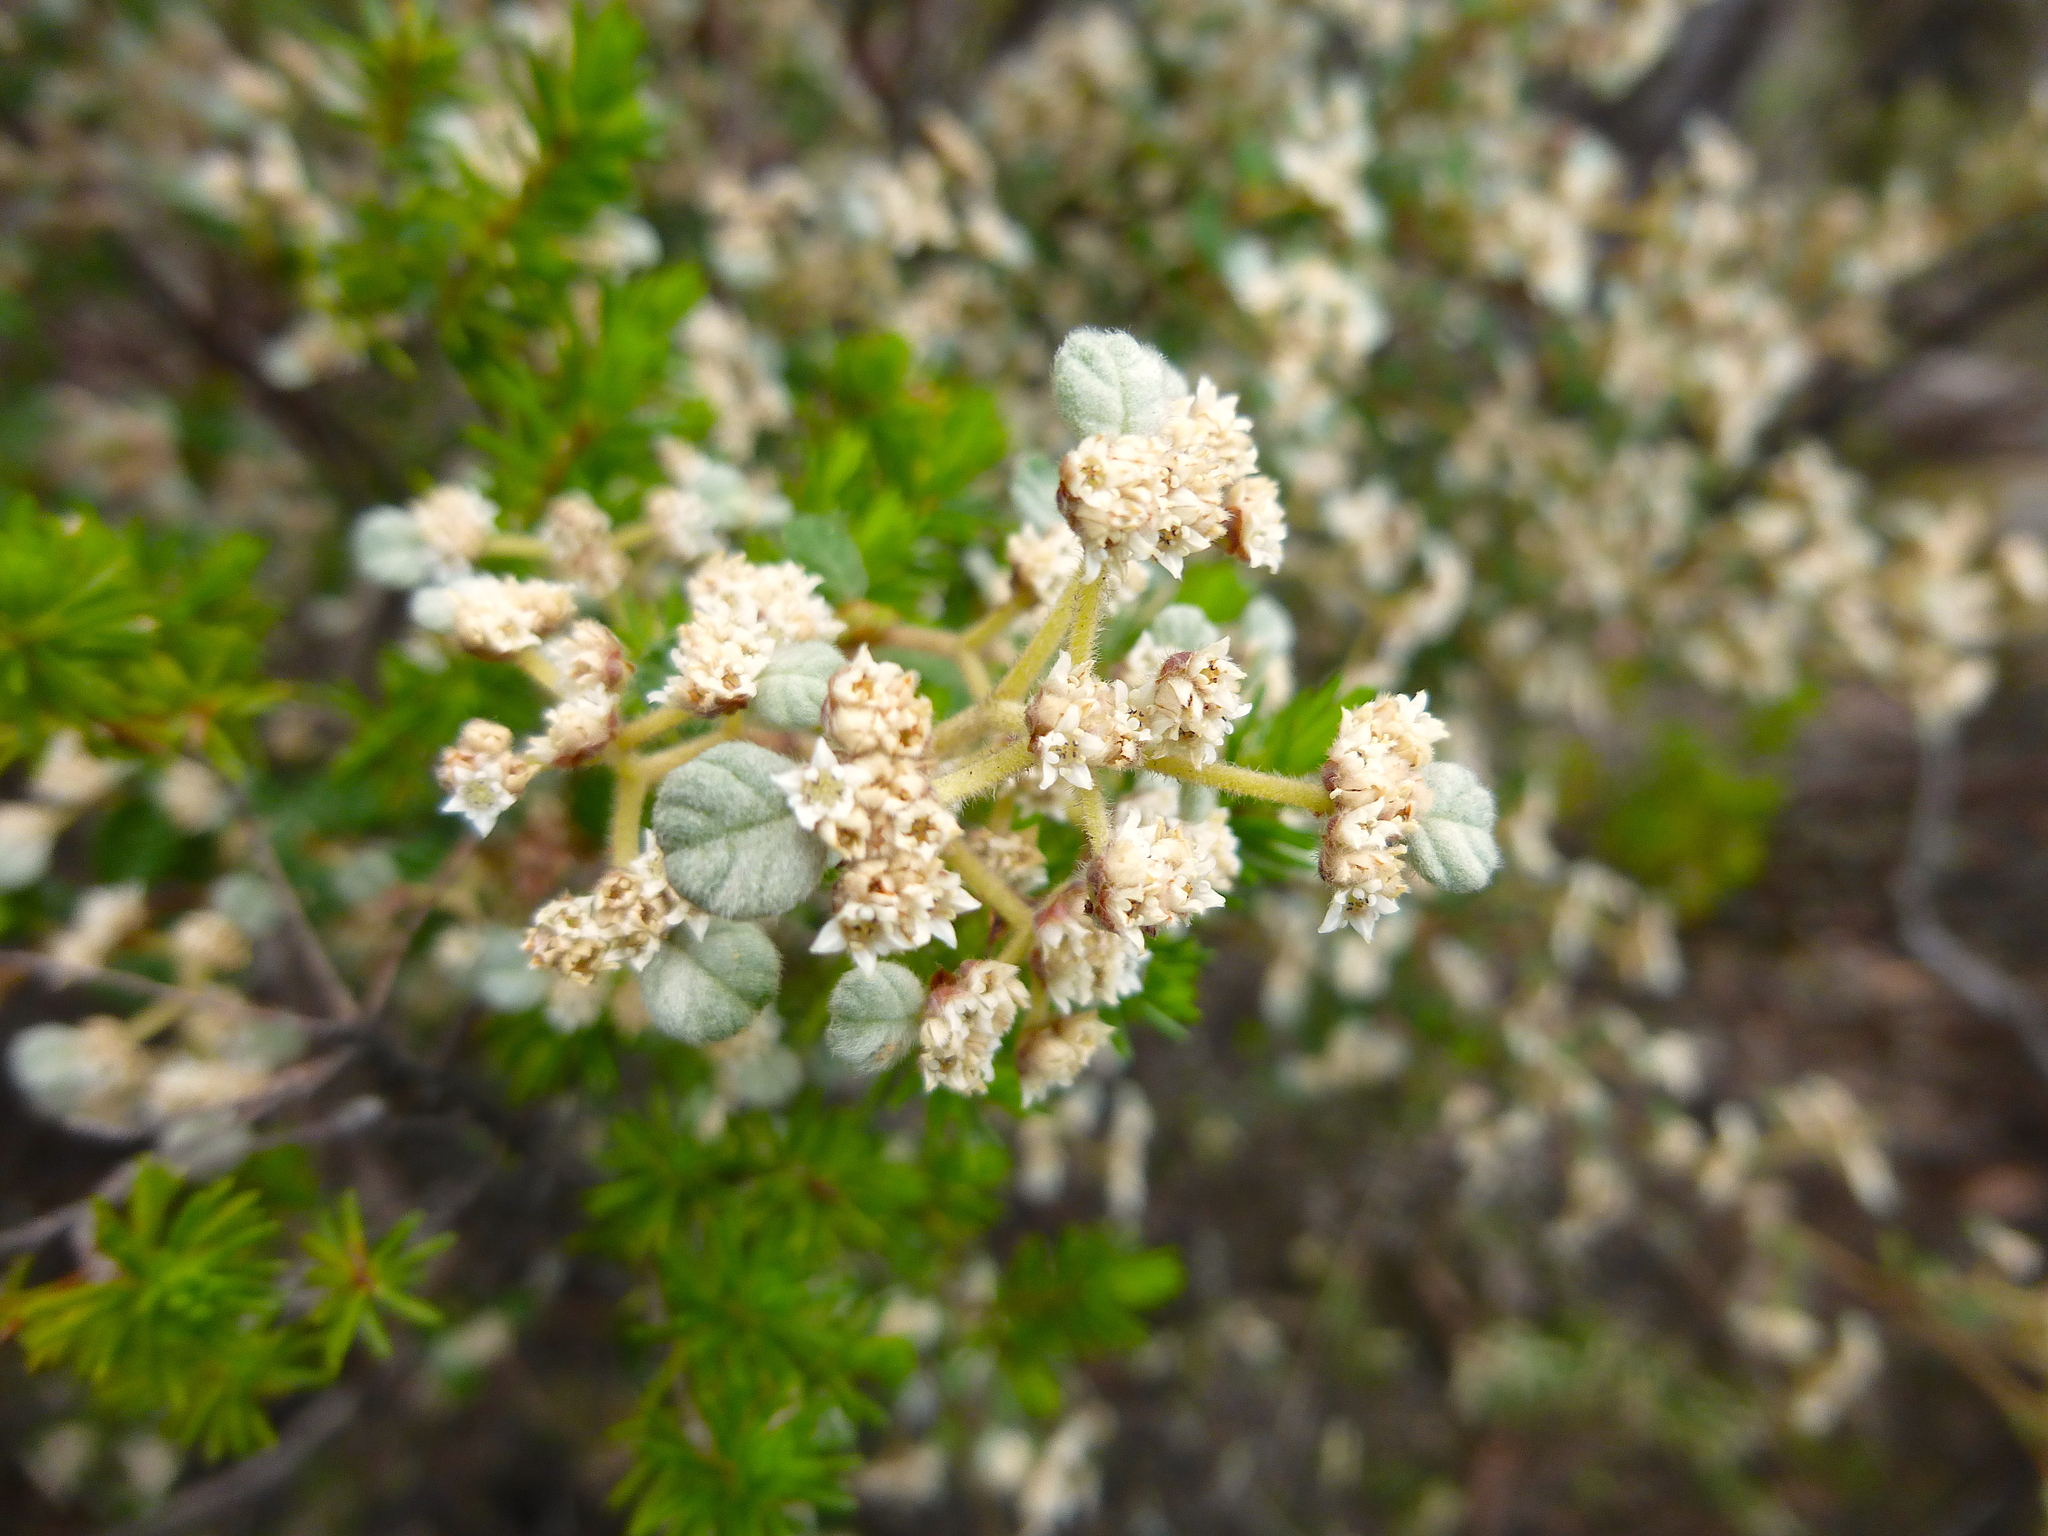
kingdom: Plantae
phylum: Tracheophyta
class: Magnoliopsida
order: Rosales
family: Rhamnaceae
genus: Spyridium
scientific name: Spyridium parvifolium
